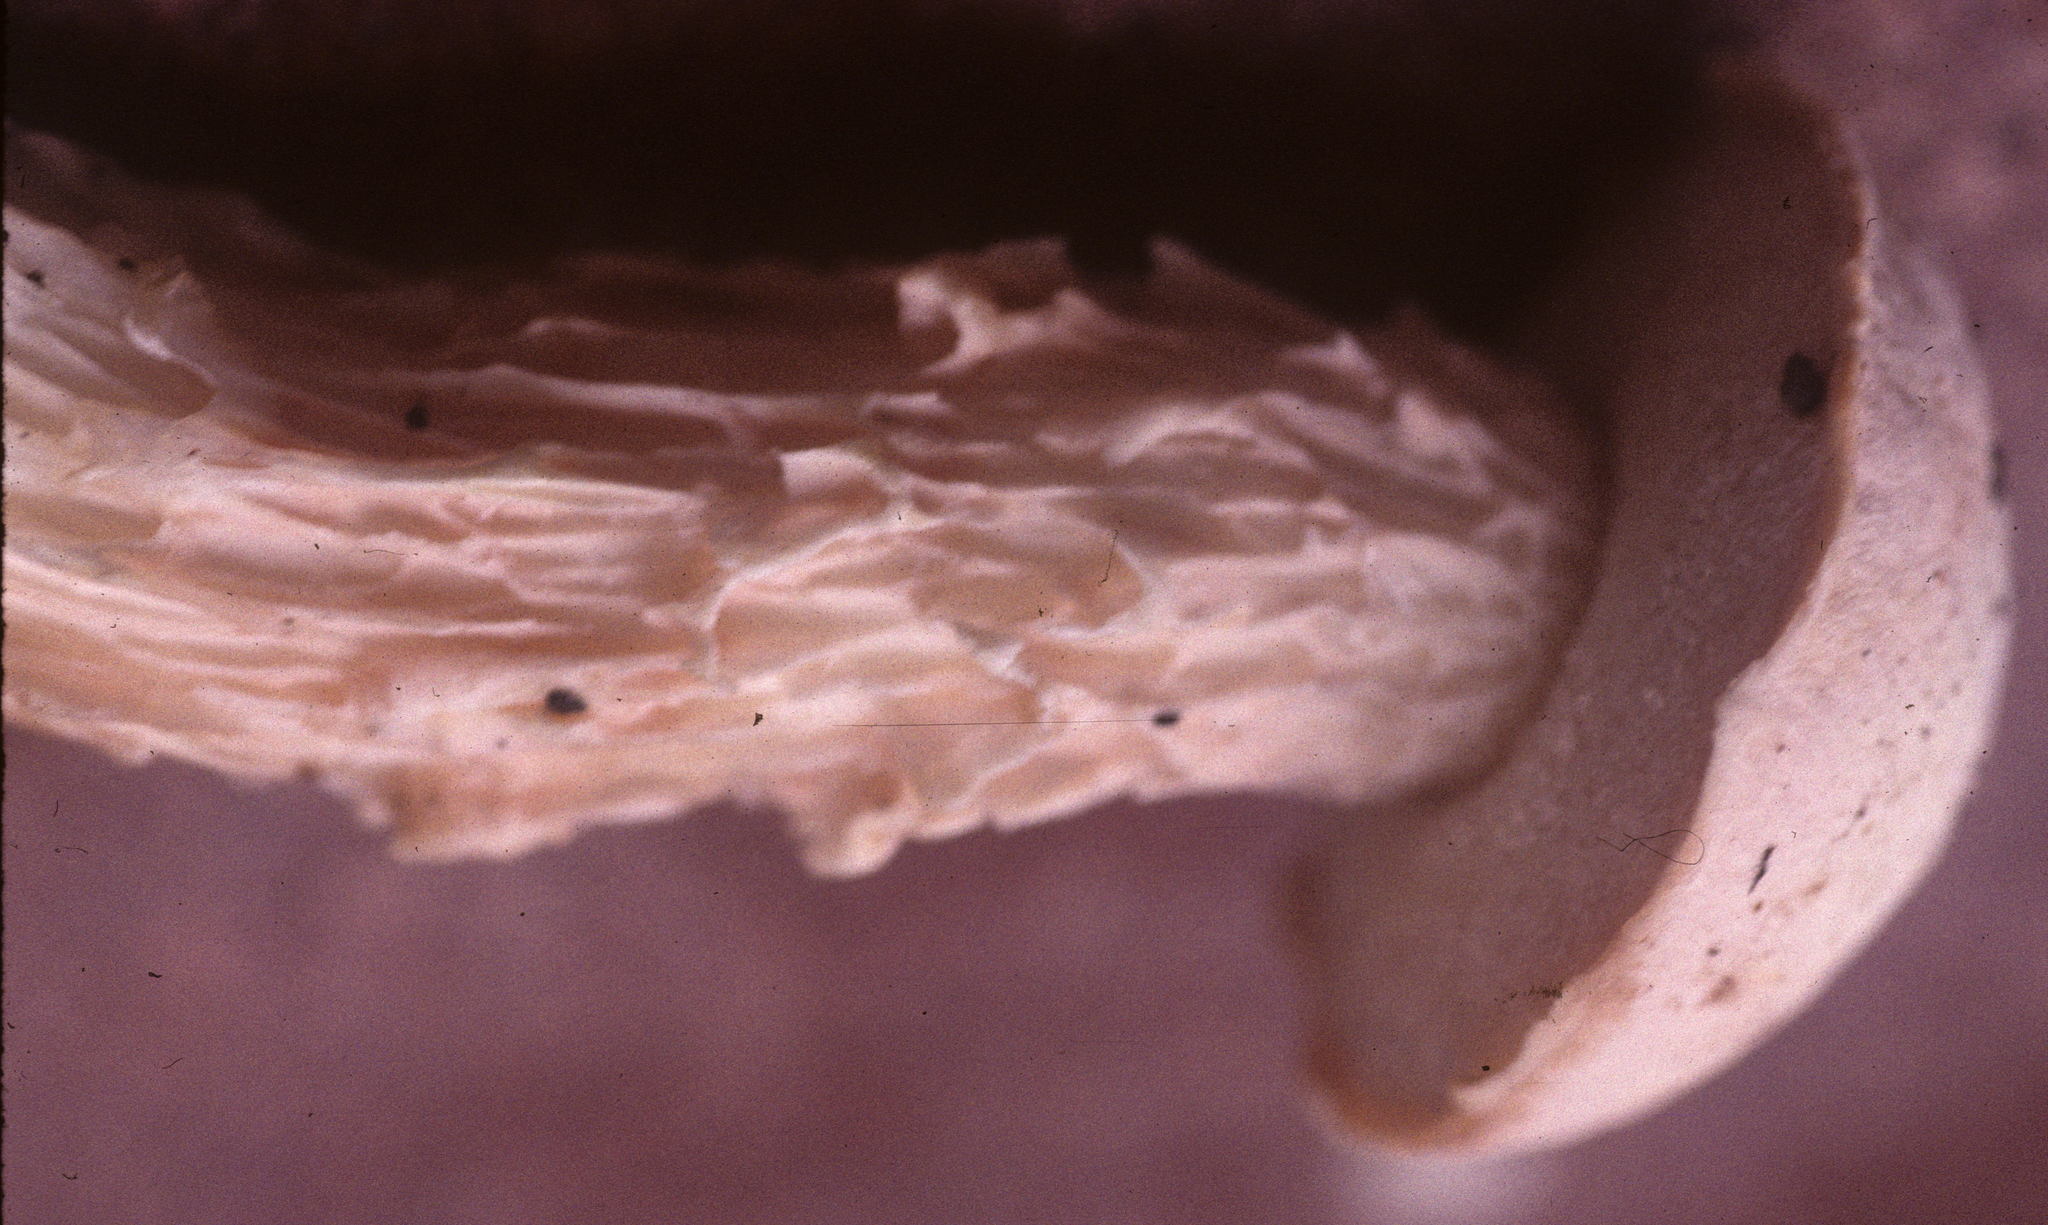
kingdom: Fungi
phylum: Basidiomycota
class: Agaricomycetes
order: Boletales
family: Boletaceae
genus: Austroboletus
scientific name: Austroboletus subflavidus
